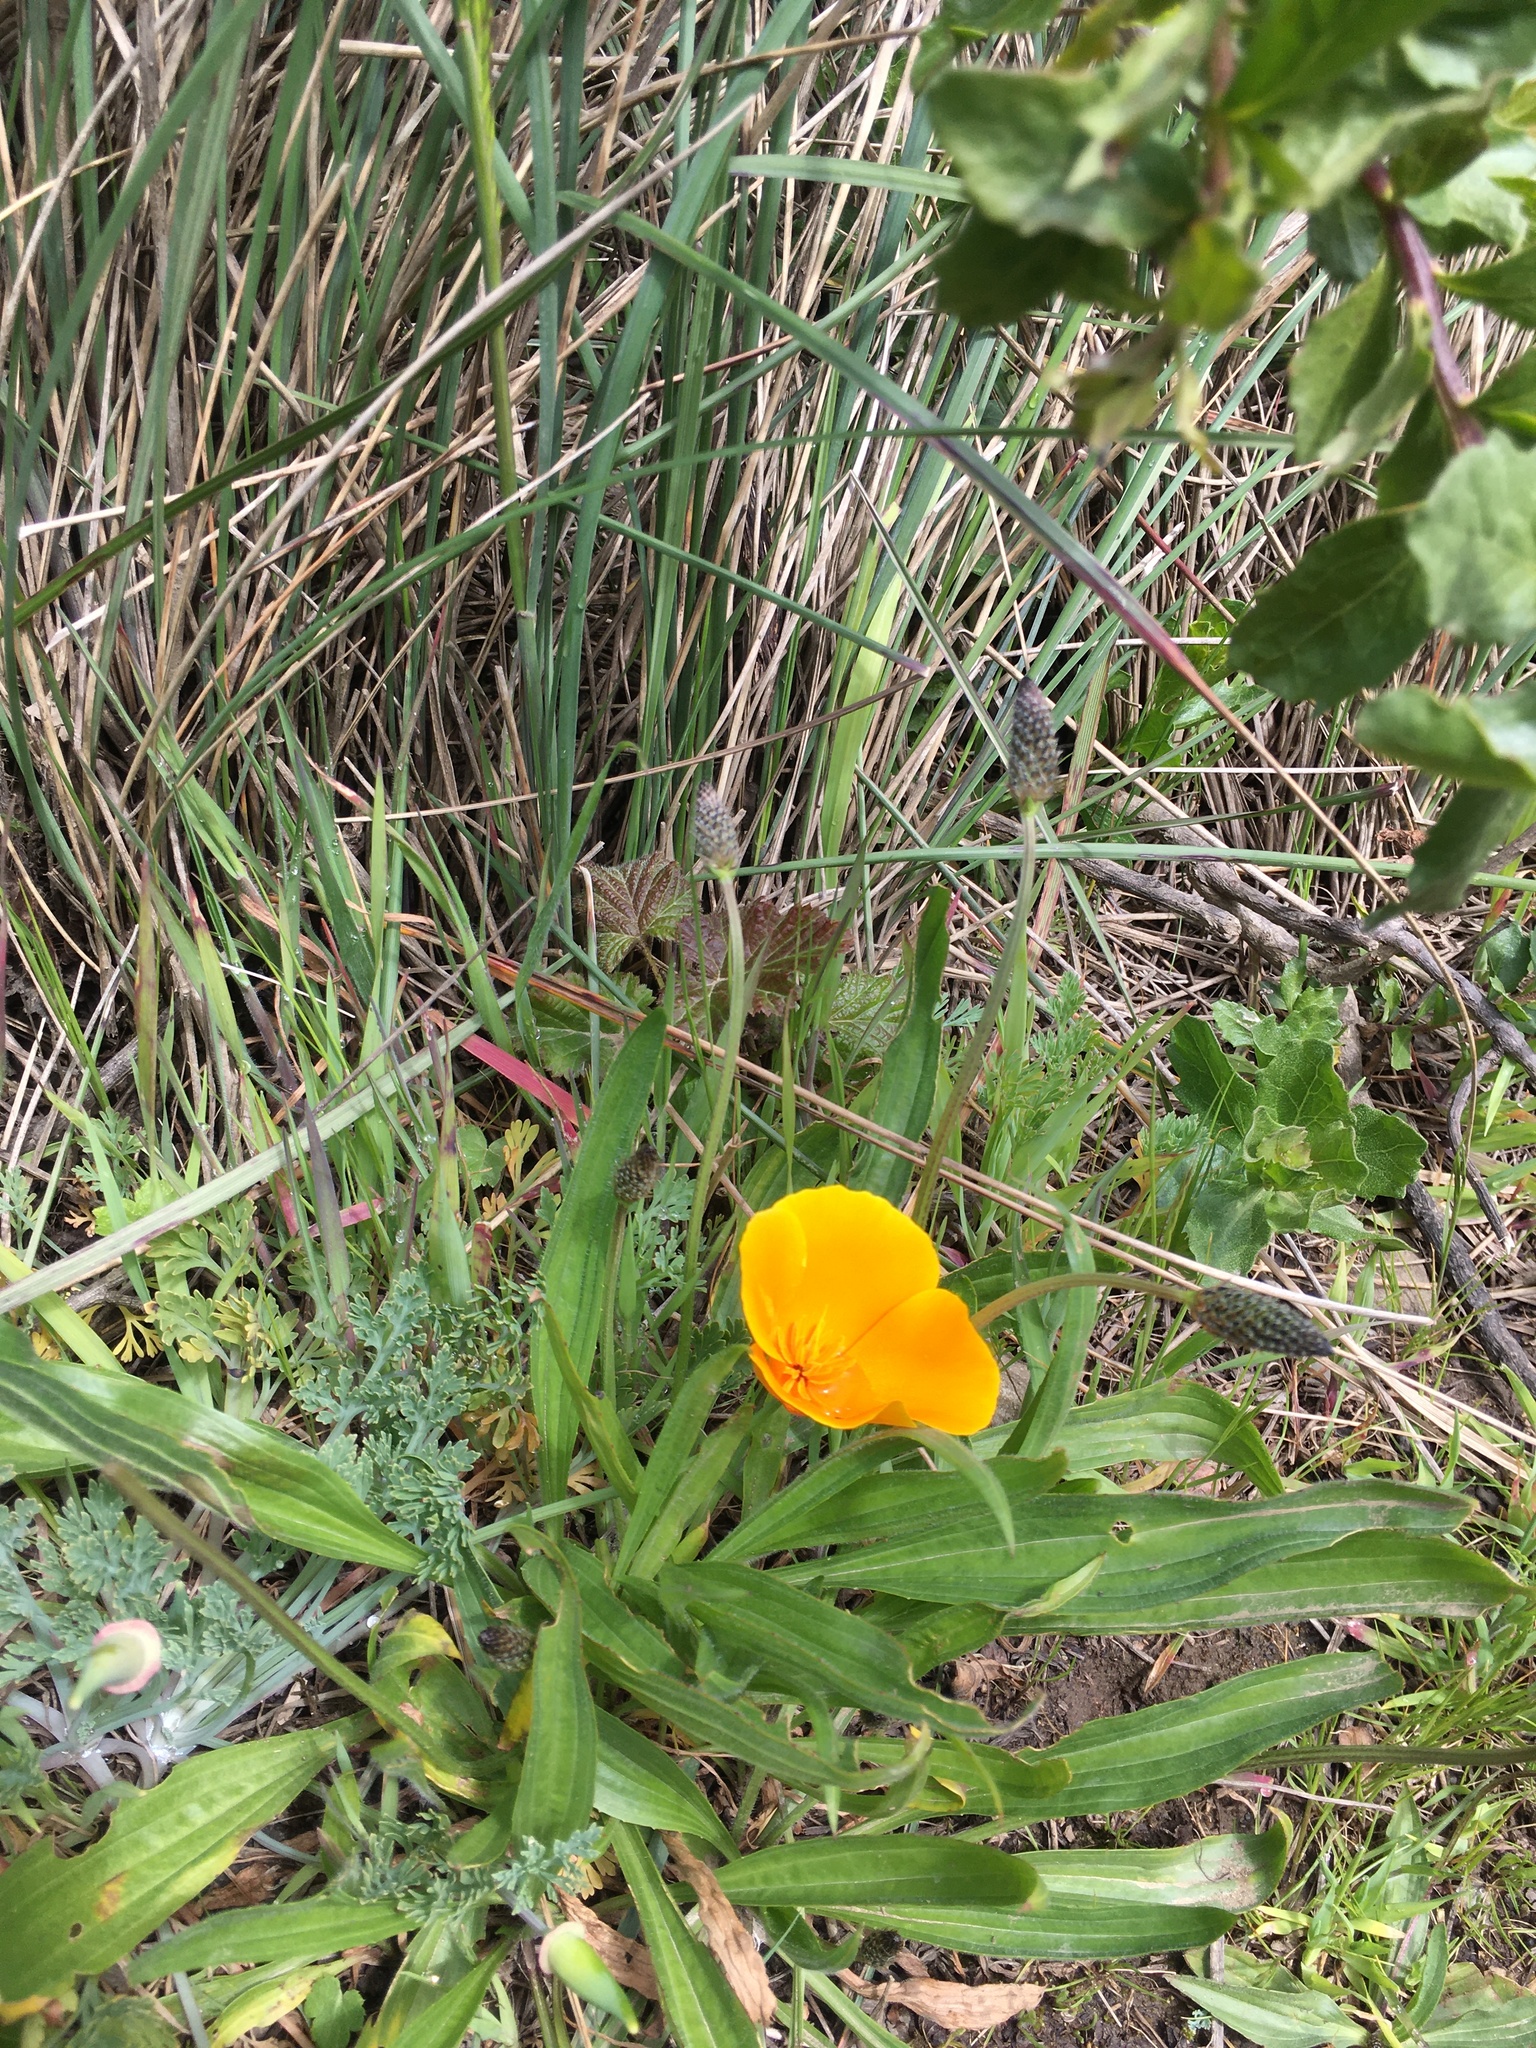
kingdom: Plantae
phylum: Tracheophyta
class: Magnoliopsida
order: Ranunculales
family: Papaveraceae
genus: Eschscholzia
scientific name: Eschscholzia californica
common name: California poppy
